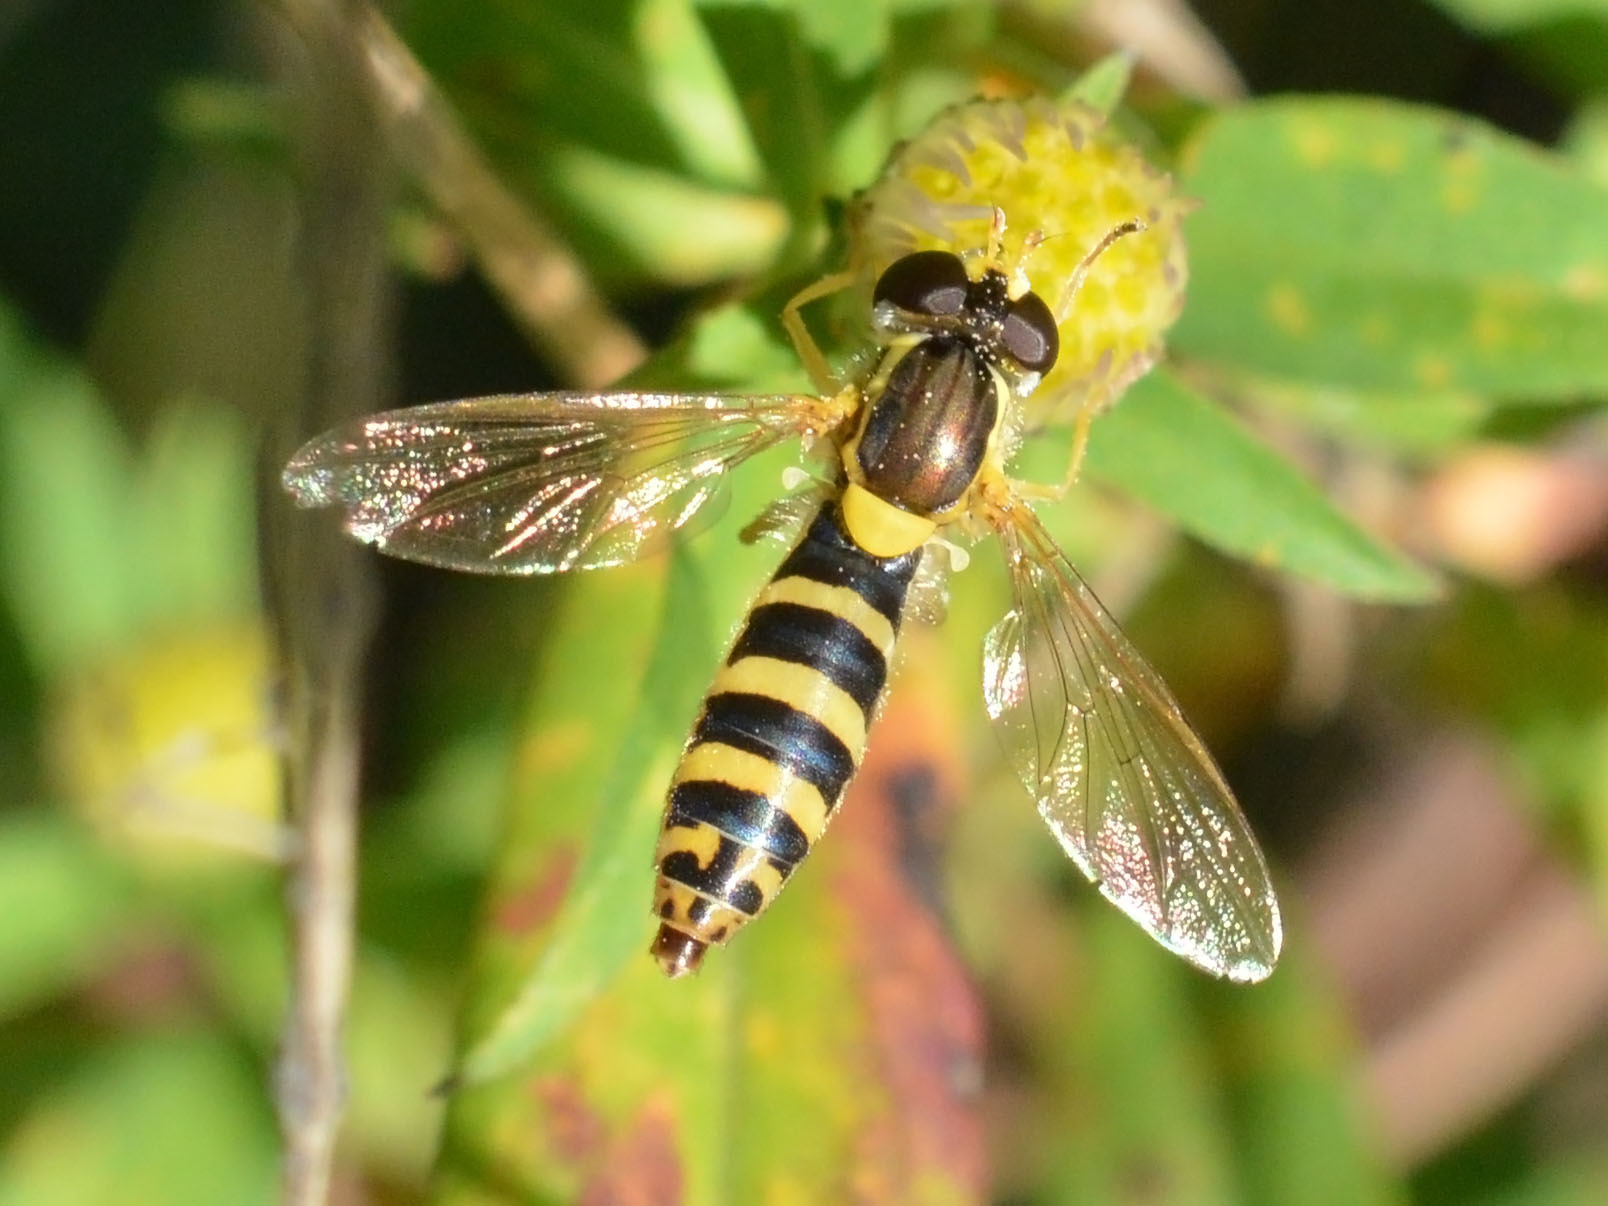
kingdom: Animalia
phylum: Arthropoda
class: Insecta
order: Diptera
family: Syrphidae
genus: Sphaerophoria
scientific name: Sphaerophoria scripta
